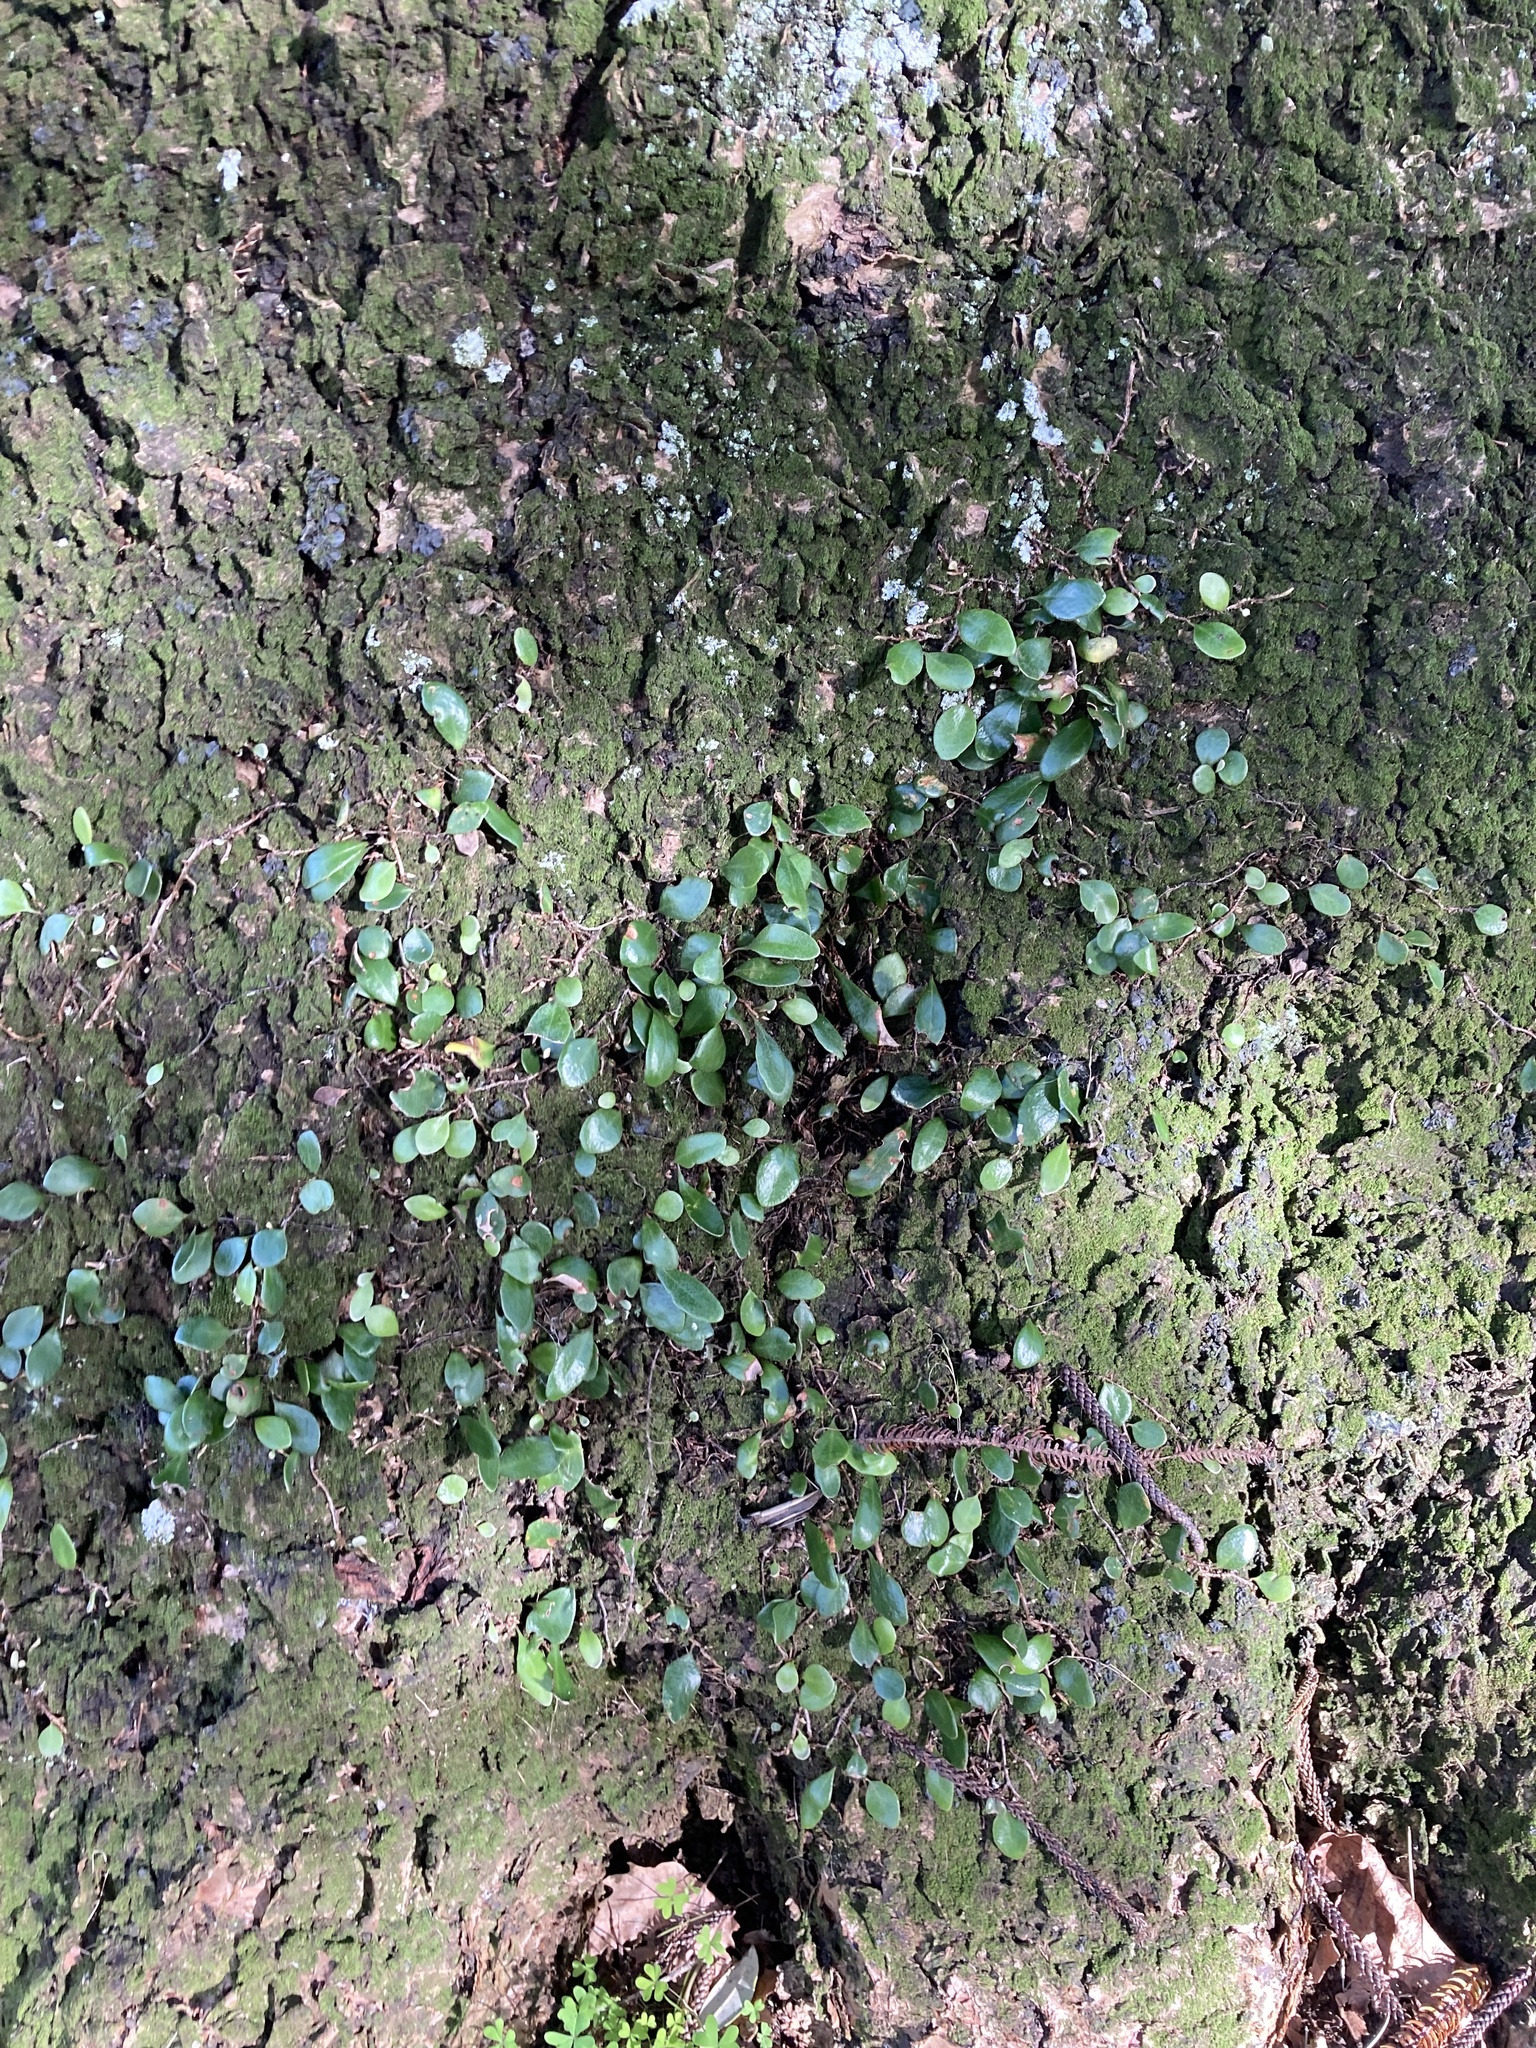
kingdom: Plantae
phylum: Tracheophyta
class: Polypodiopsida
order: Polypodiales
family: Polypodiaceae
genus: Pyrrosia
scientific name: Pyrrosia eleagnifolia
